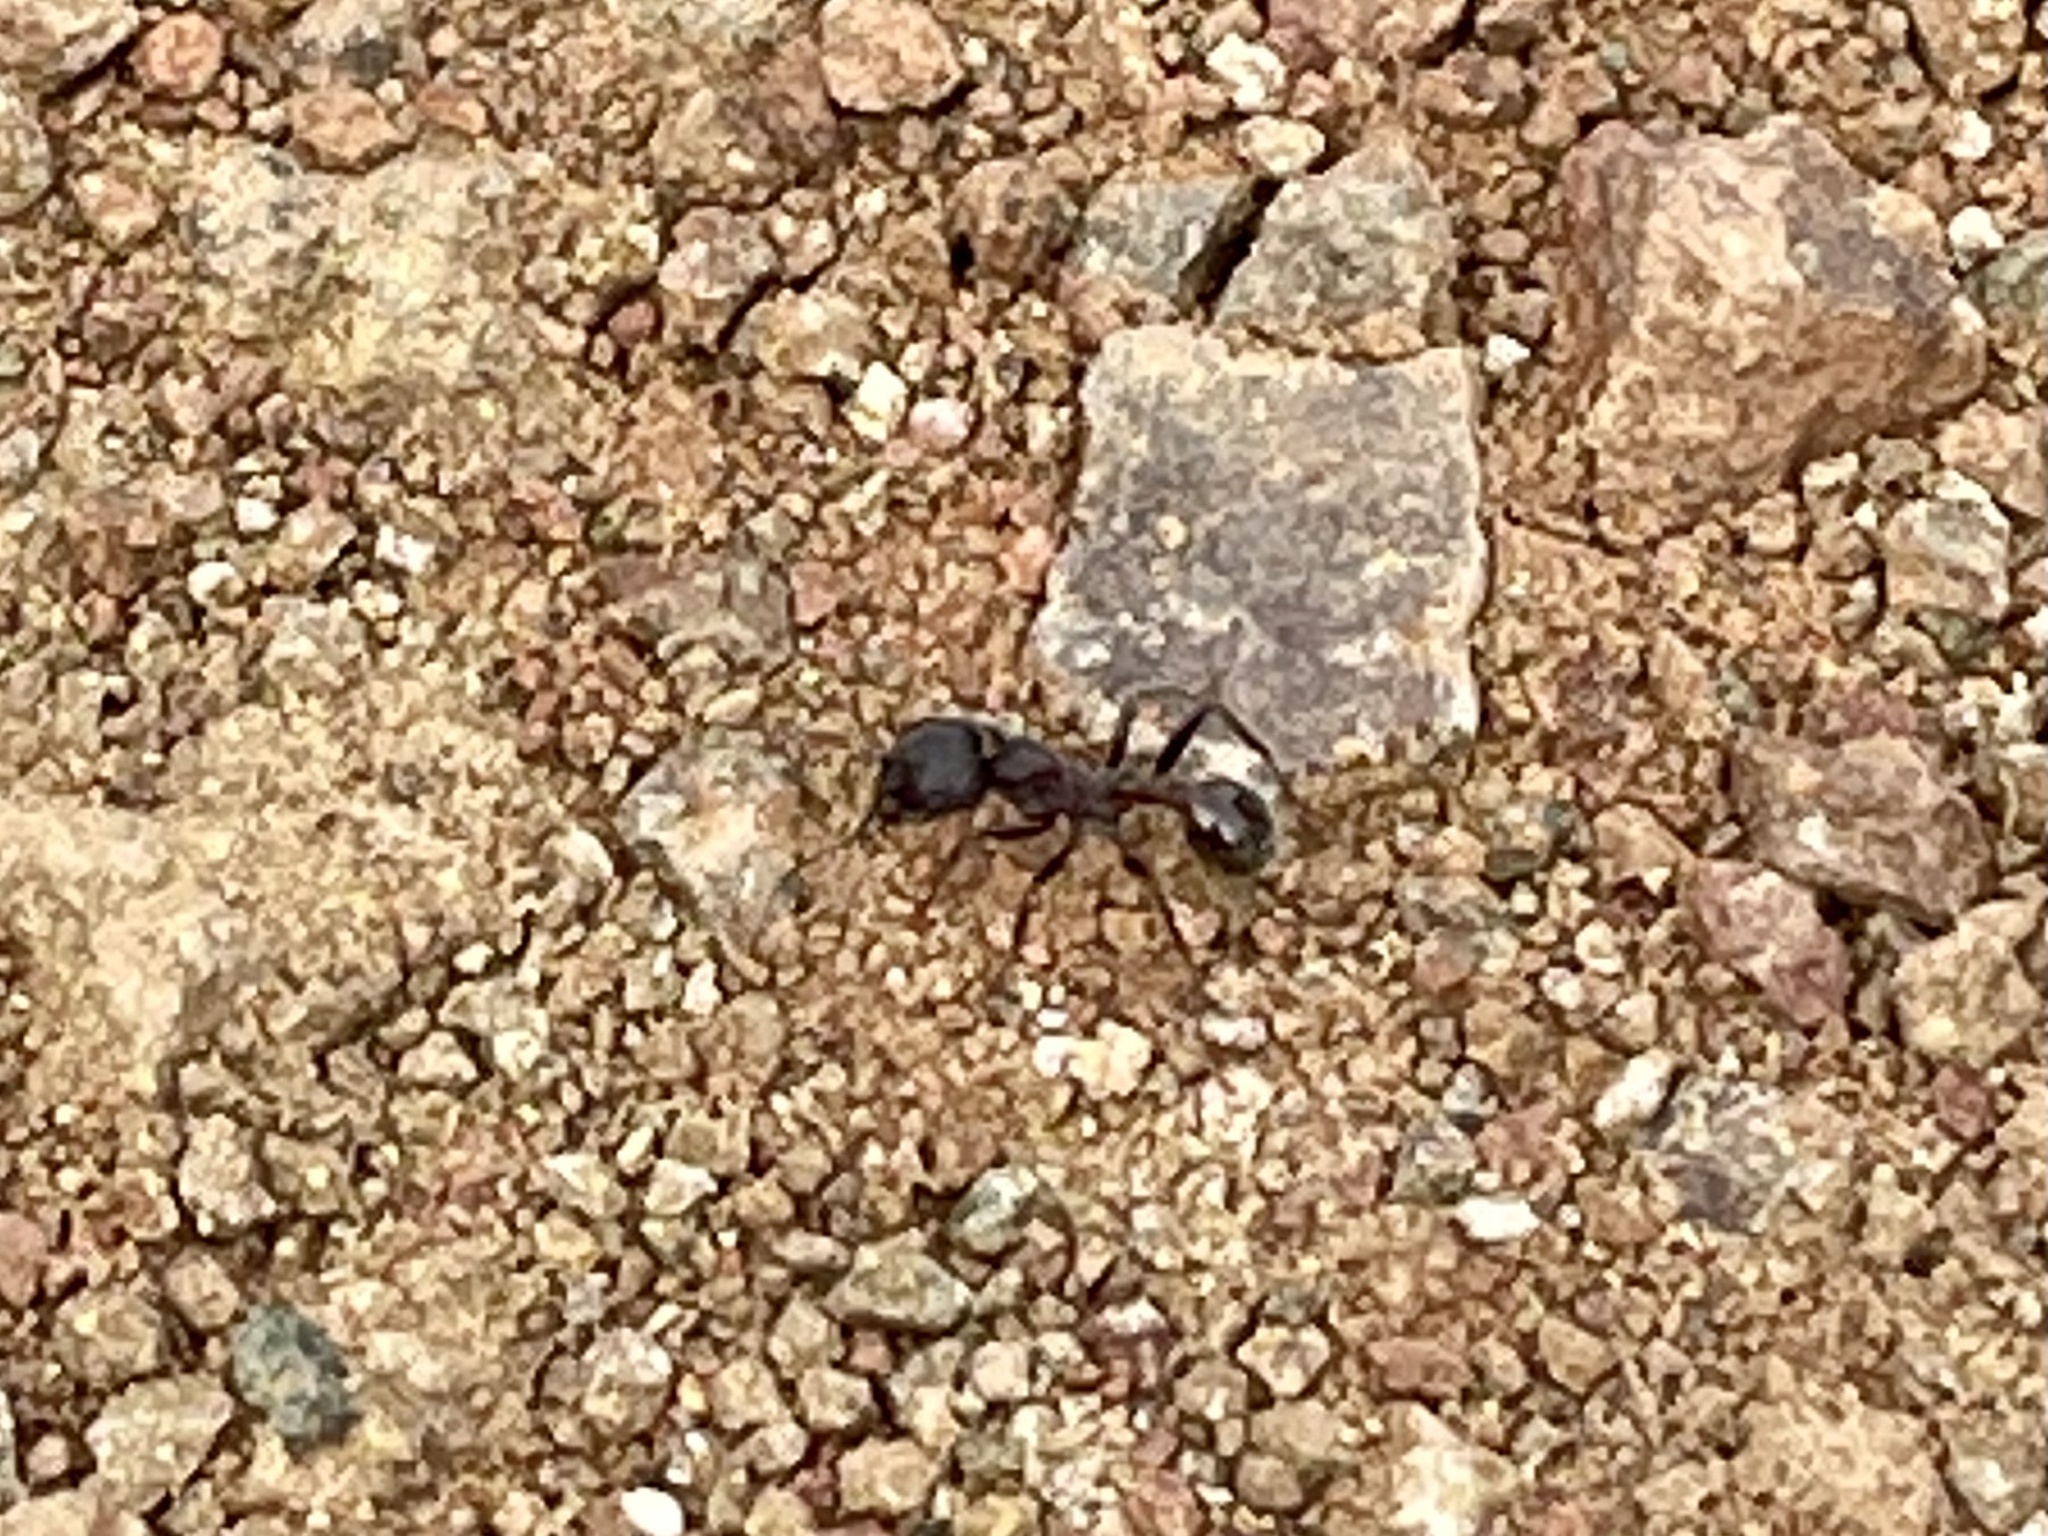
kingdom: Animalia
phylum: Arthropoda
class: Insecta
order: Hymenoptera
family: Formicidae
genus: Veromessor
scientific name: Veromessor andrei
